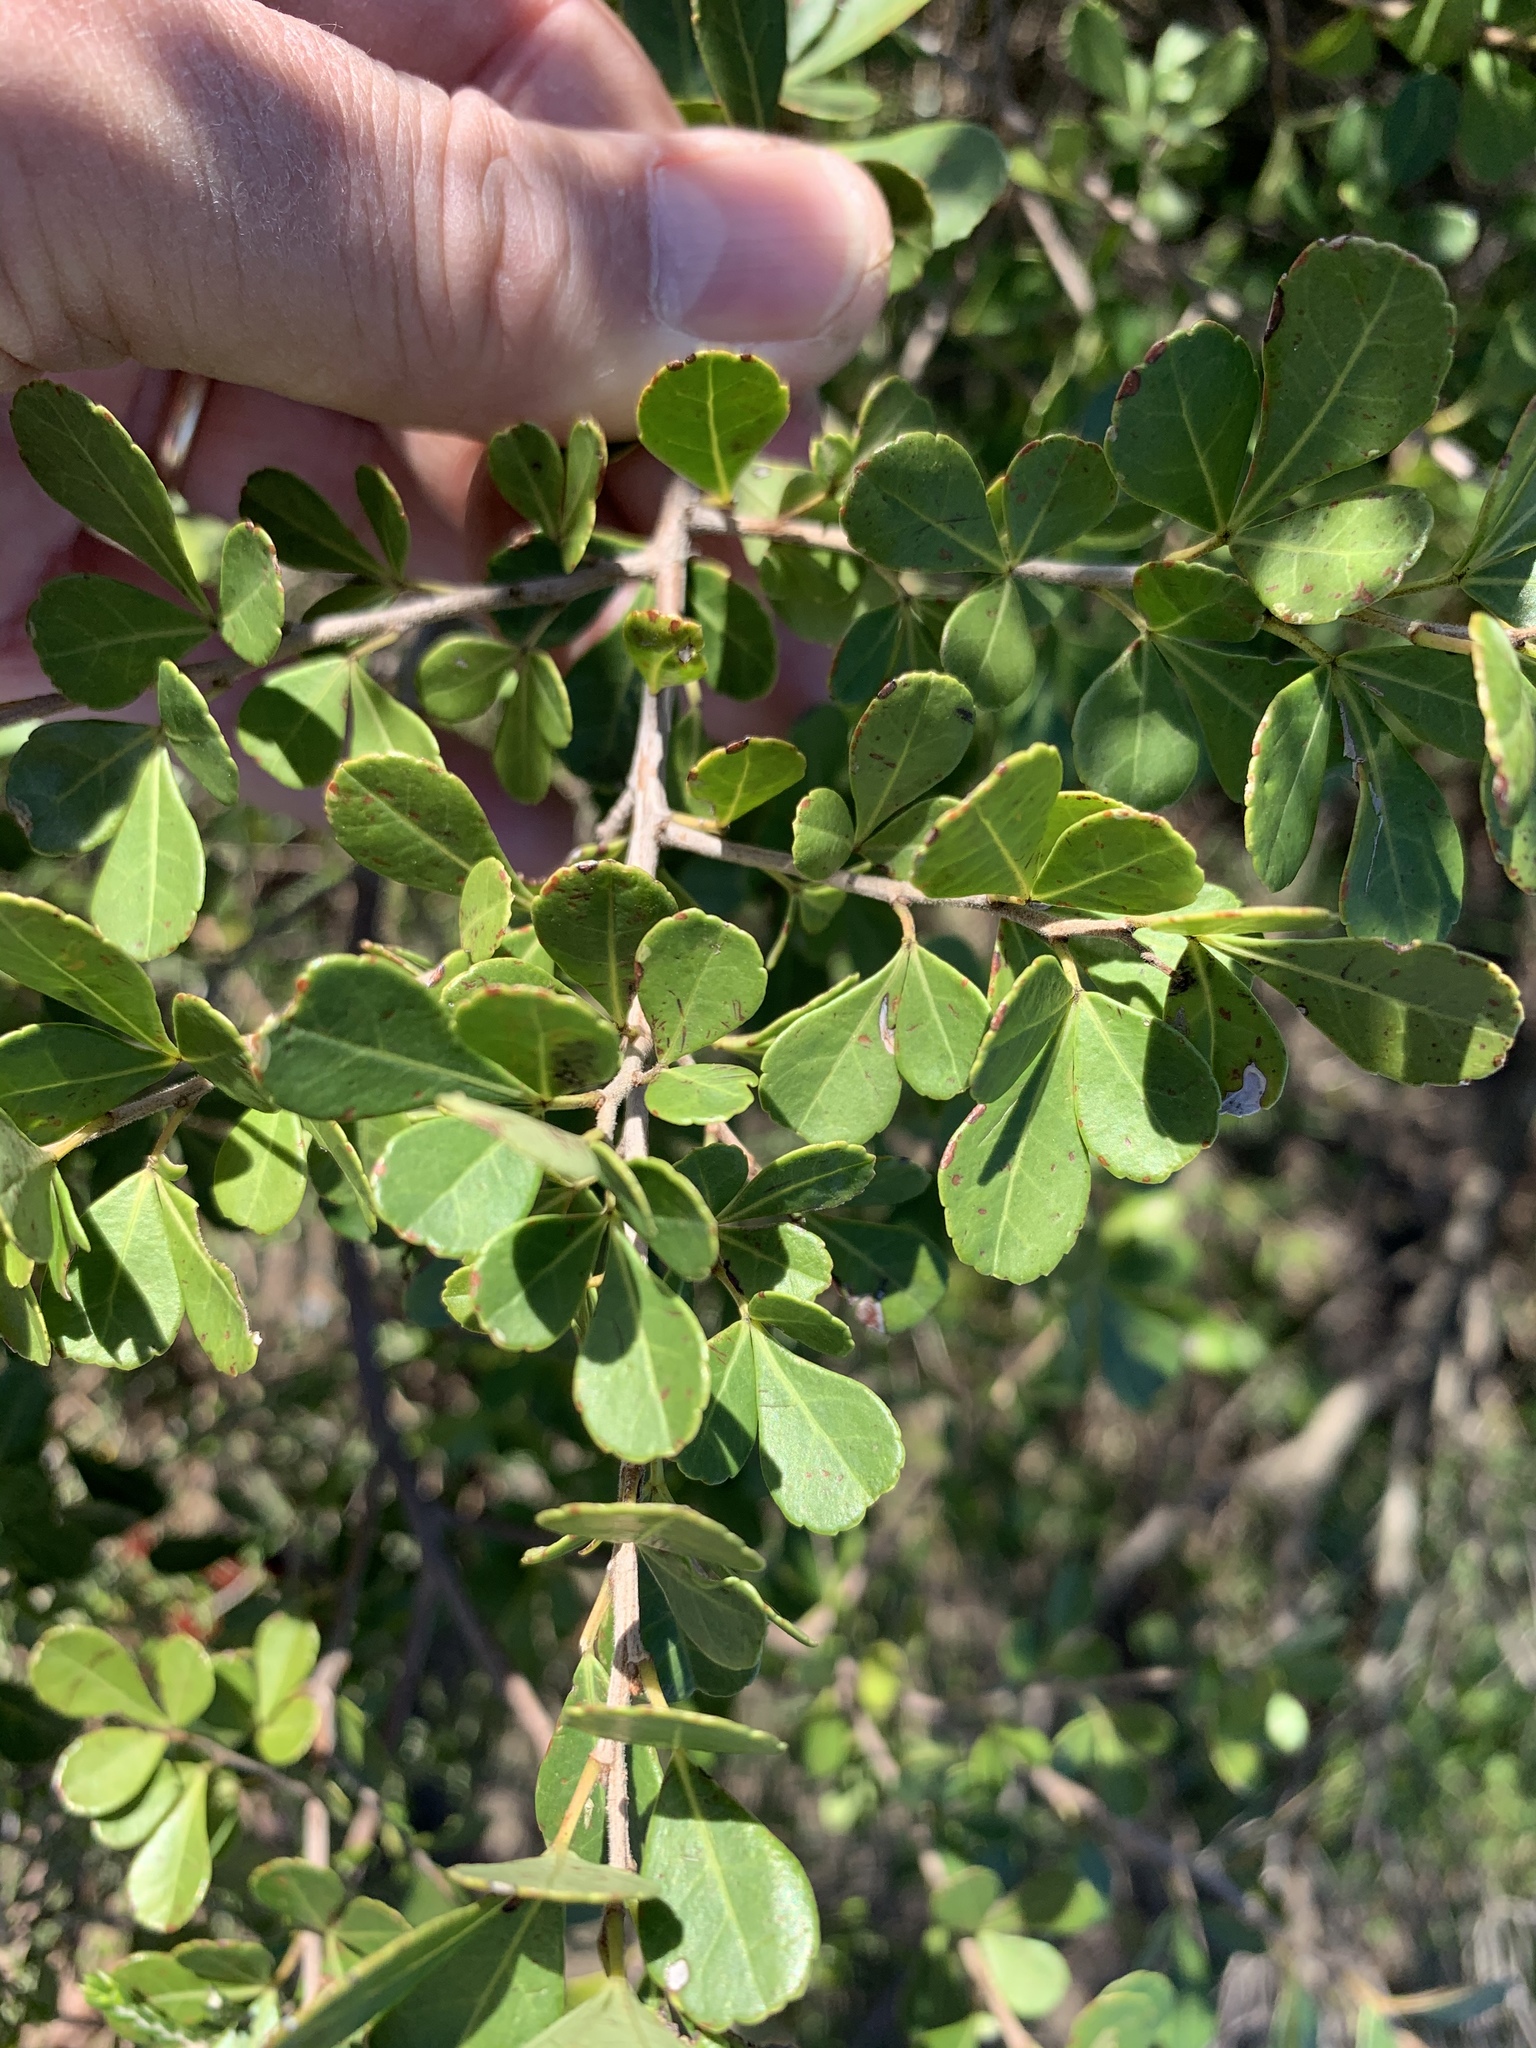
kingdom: Plantae
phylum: Tracheophyta
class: Magnoliopsida
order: Sapindales
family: Anacardiaceae
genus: Searsia
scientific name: Searsia crenata
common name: Crowberry
